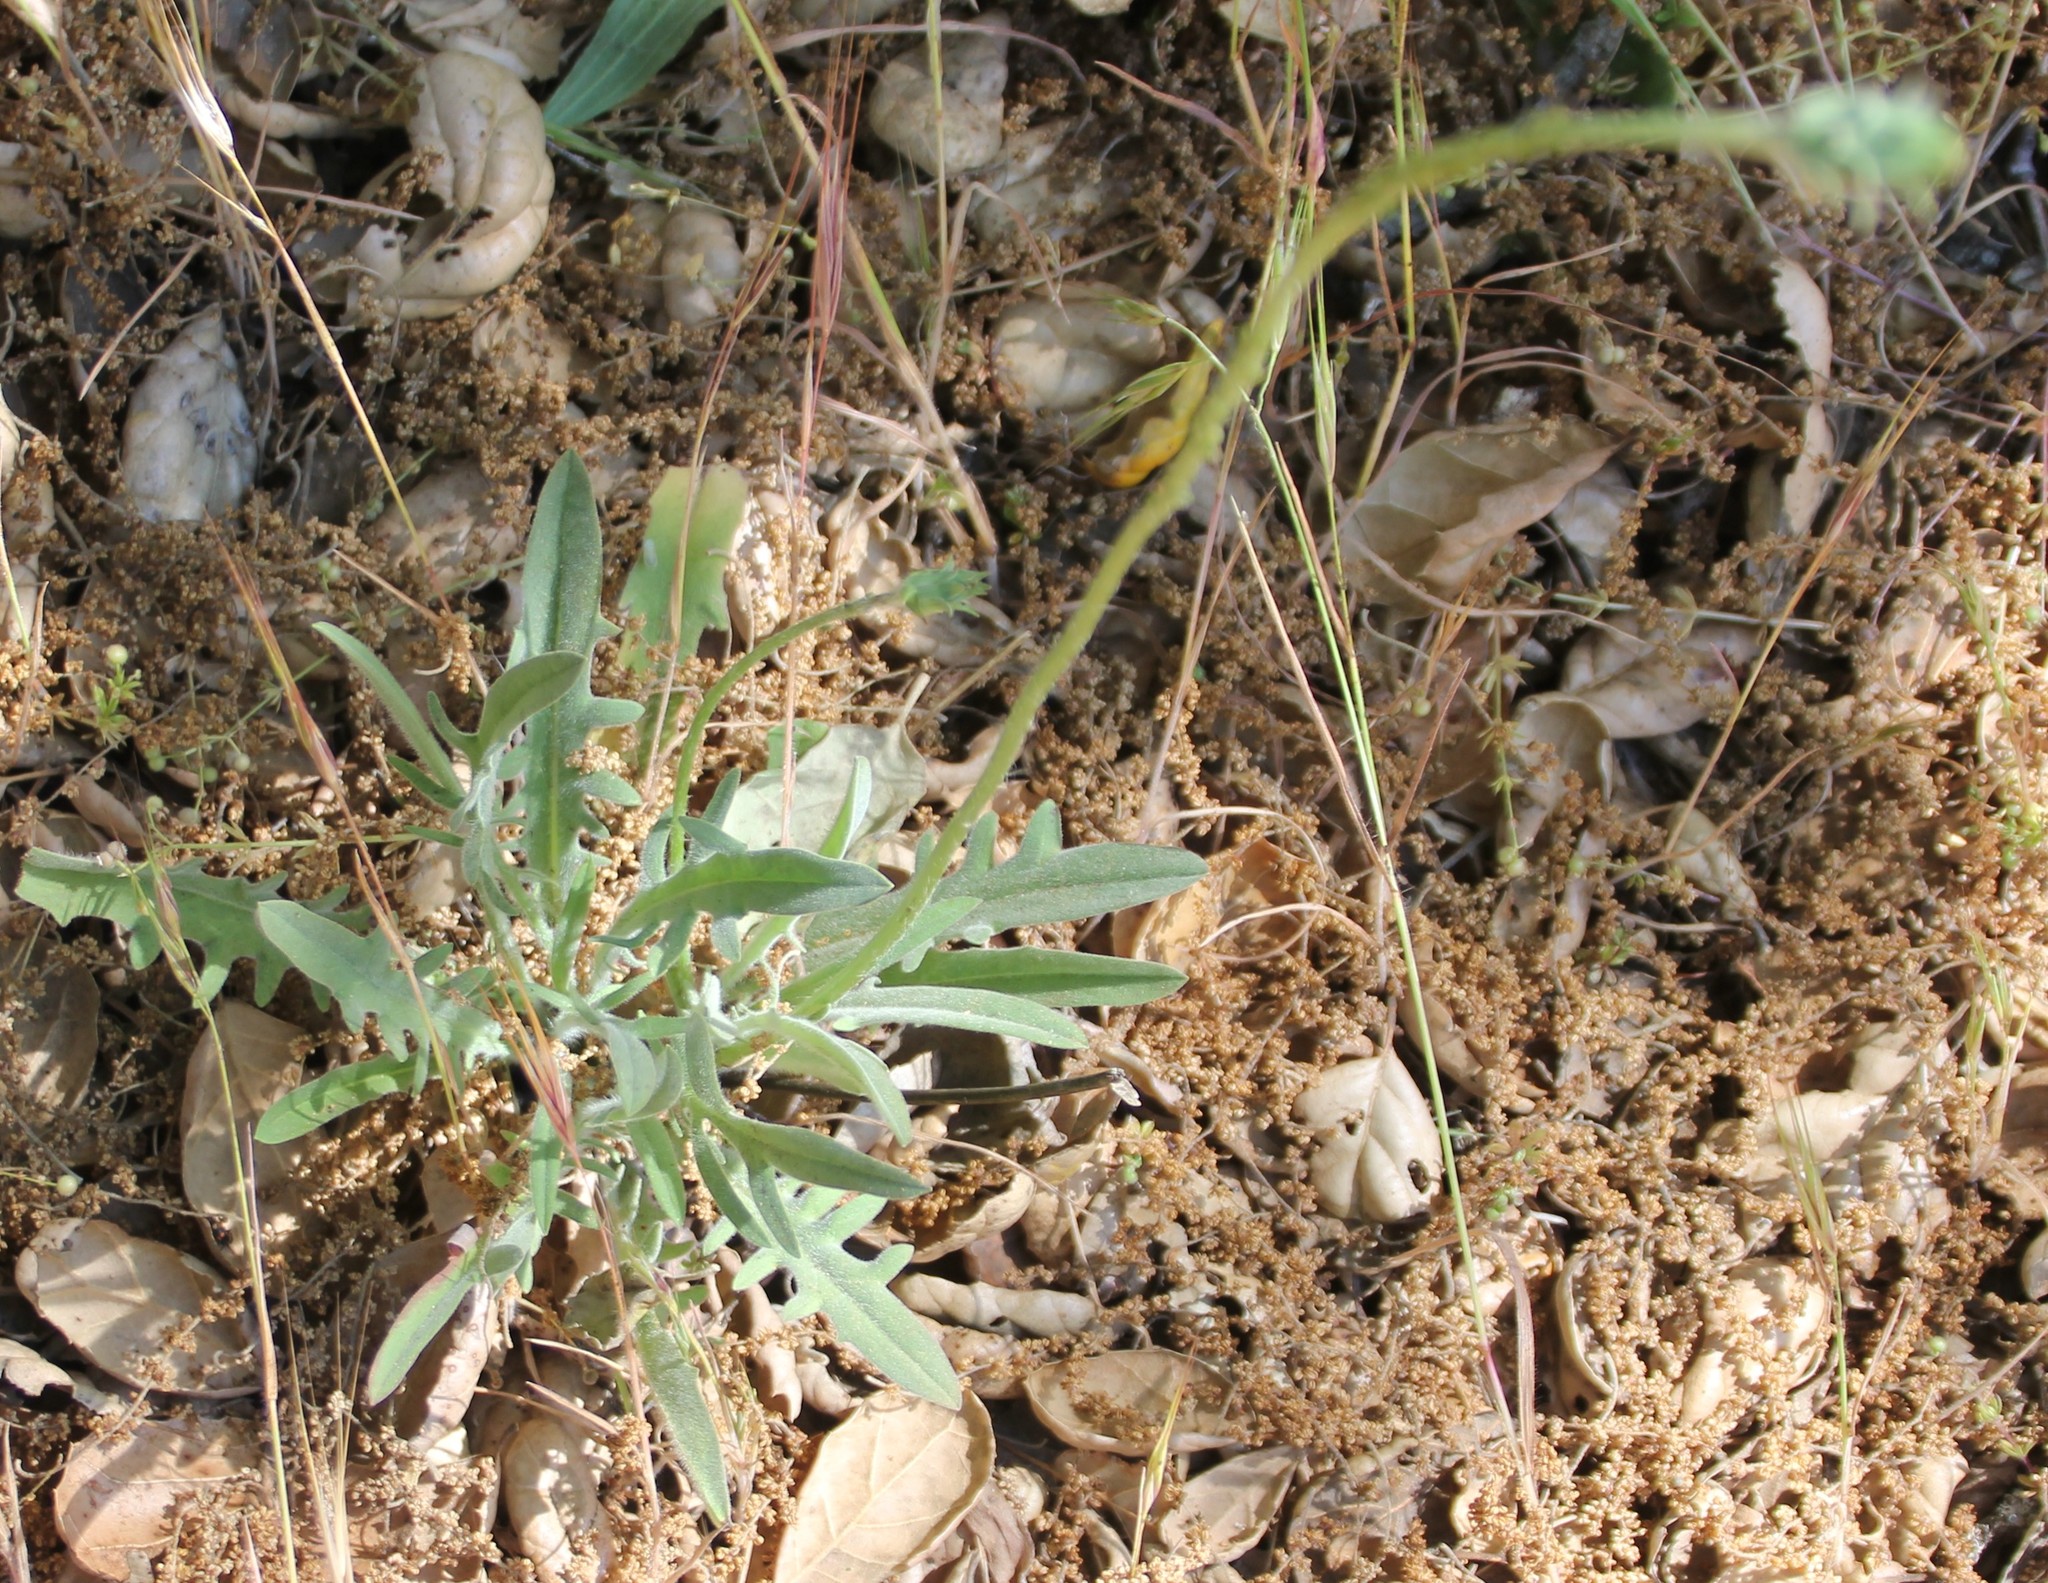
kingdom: Plantae
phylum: Tracheophyta
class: Magnoliopsida
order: Asterales
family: Asteraceae
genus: Agoseris
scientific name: Agoseris grandiflora
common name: Grassland agoseris
